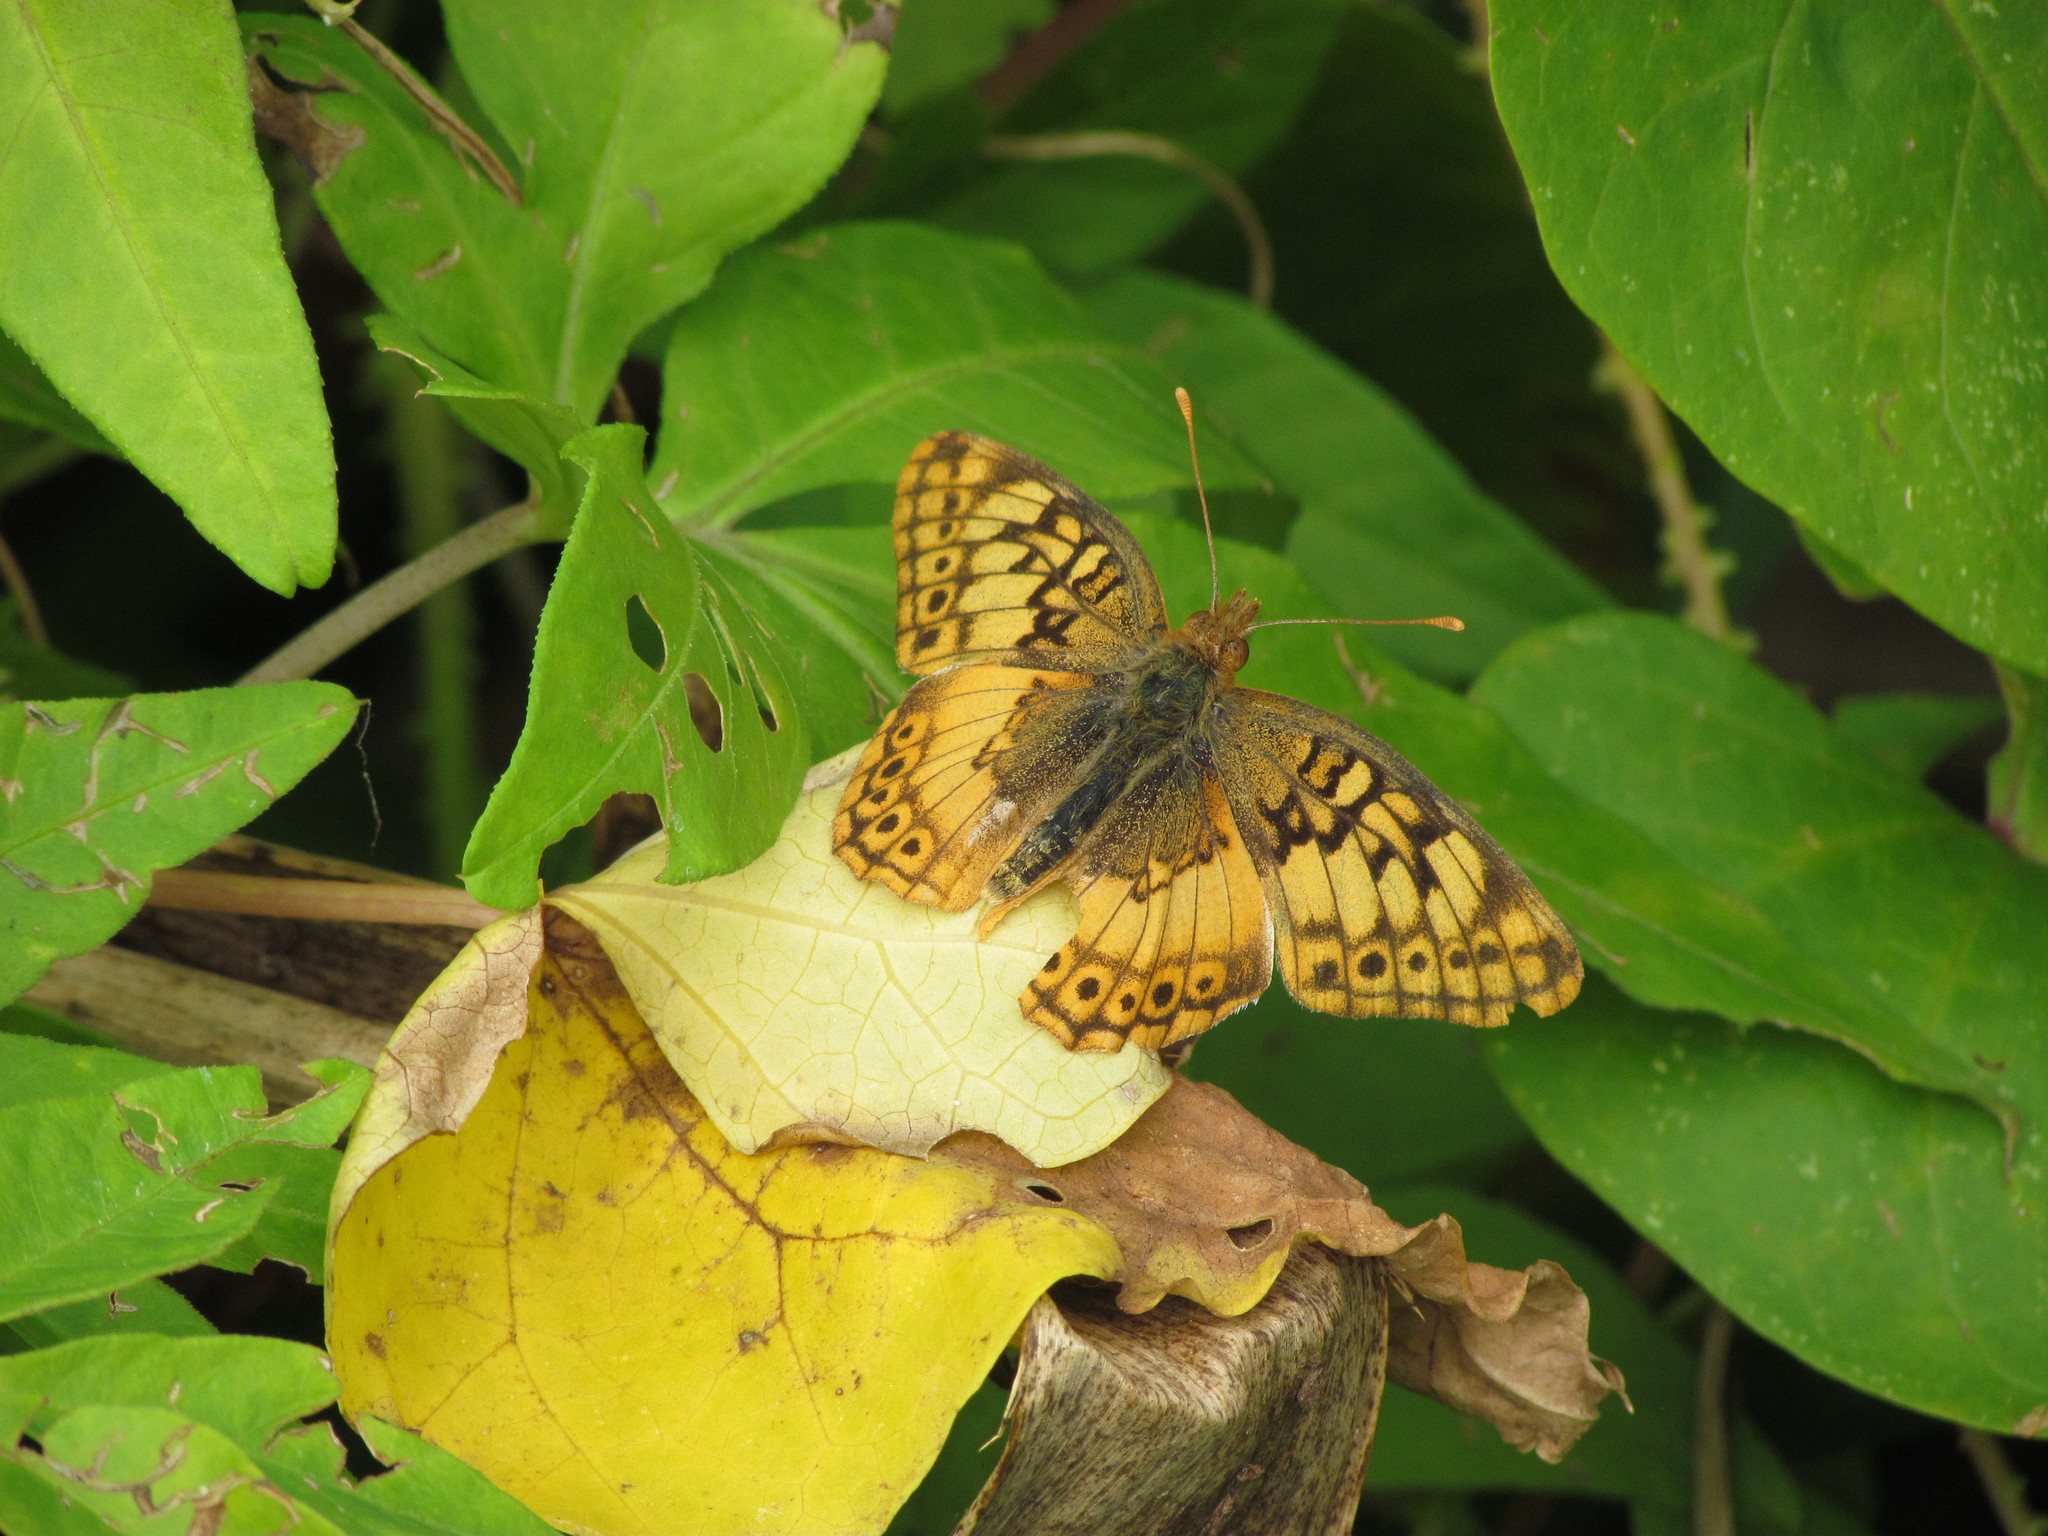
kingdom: Animalia
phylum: Arthropoda
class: Insecta
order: Lepidoptera
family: Nymphalidae
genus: Euptoieta
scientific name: Euptoieta hortensia
